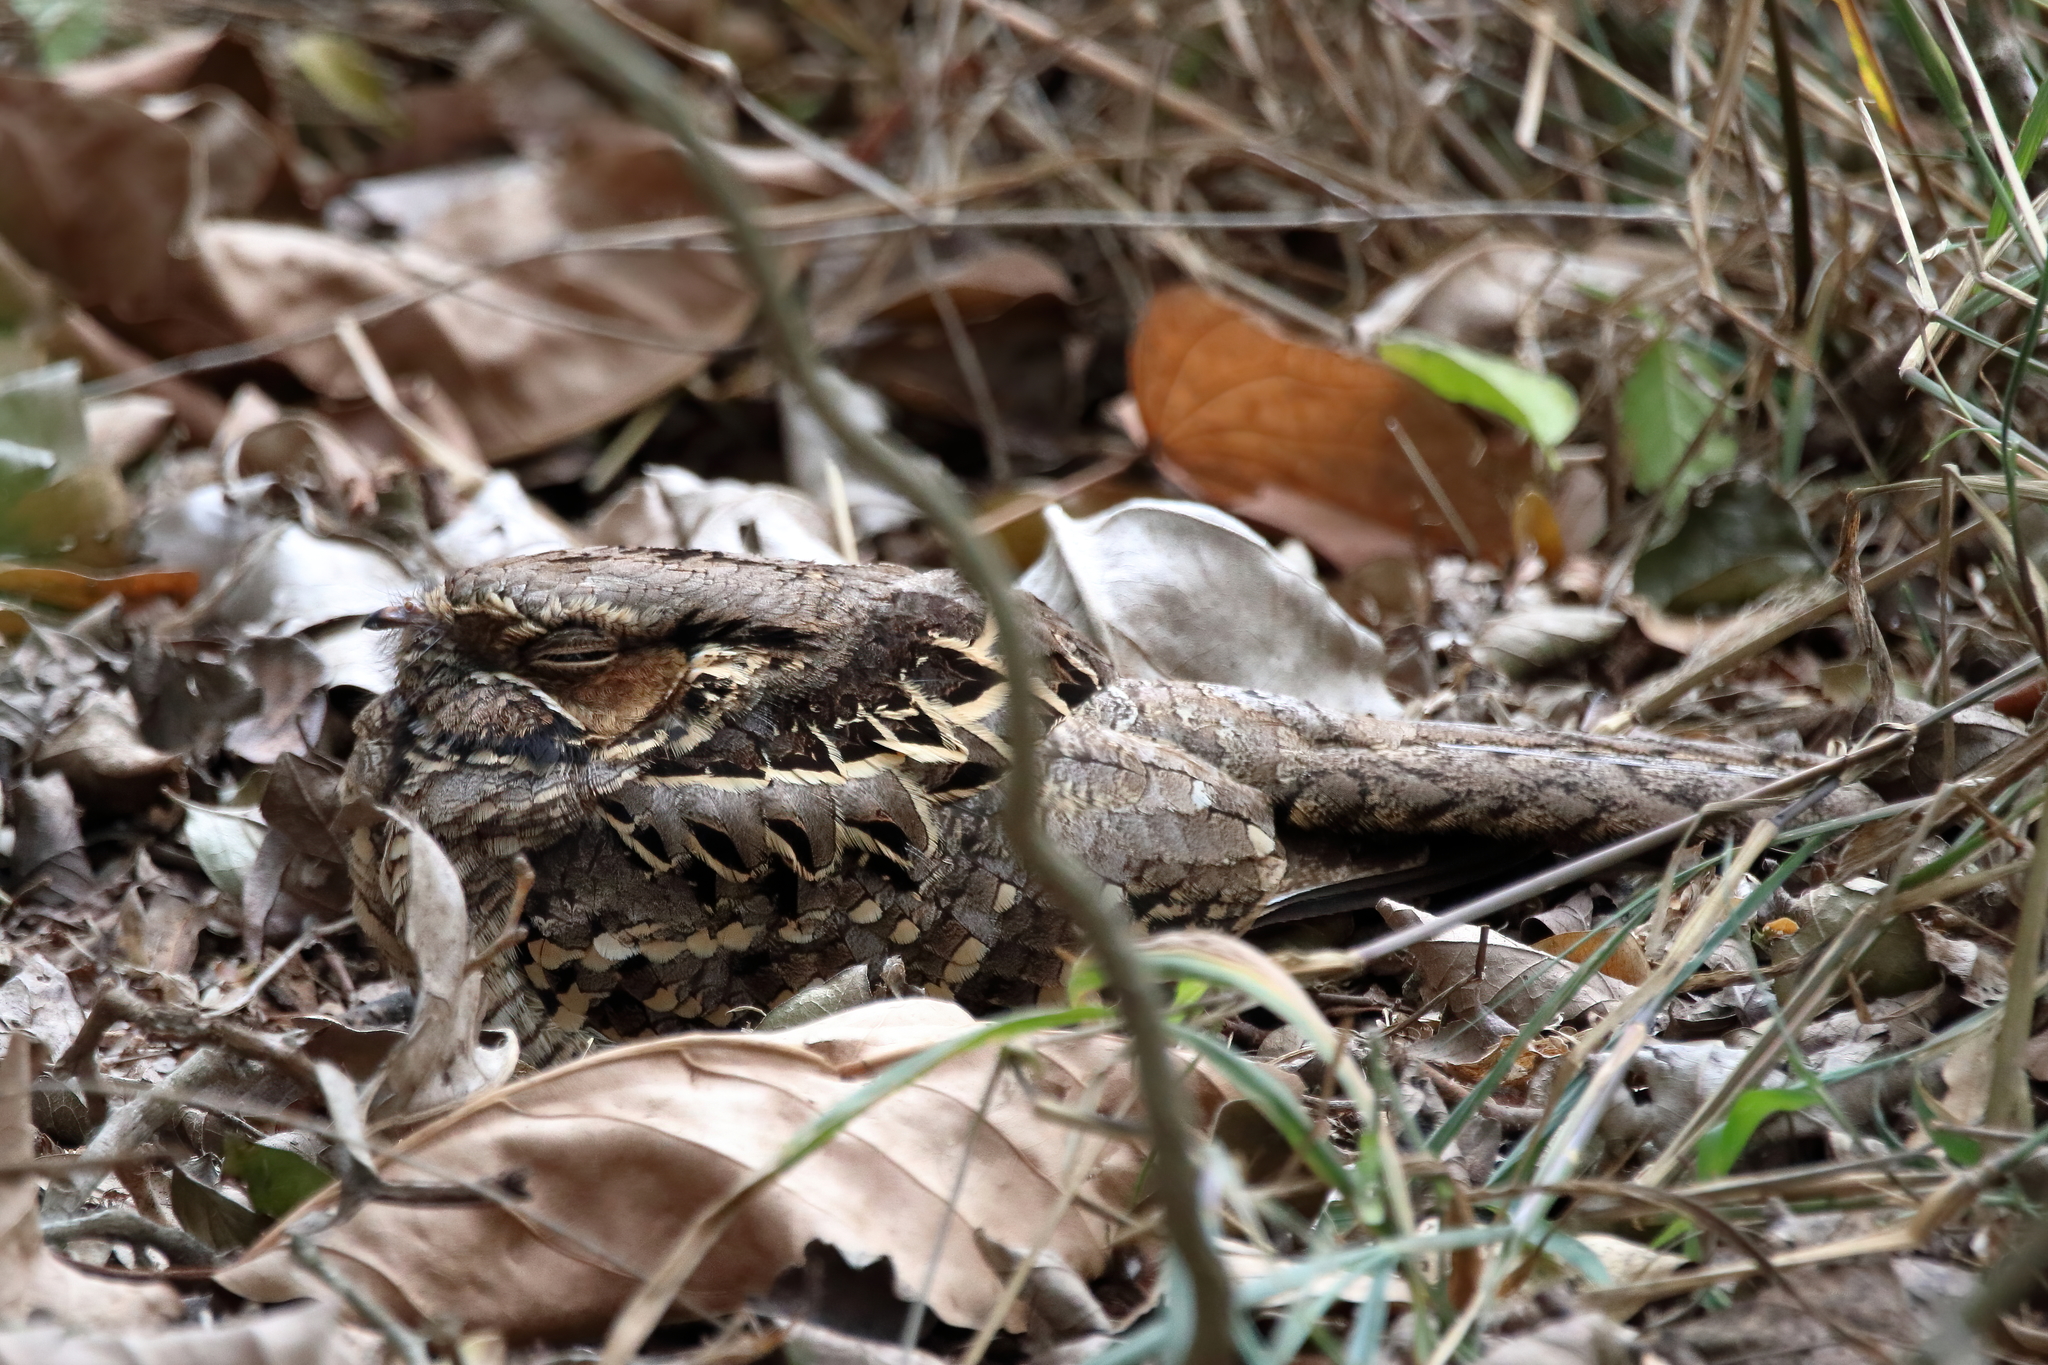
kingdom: Animalia
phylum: Chordata
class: Aves
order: Caprimulgiformes
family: Caprimulgidae
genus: Nyctidromus
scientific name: Nyctidromus albicollis
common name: Pauraque
